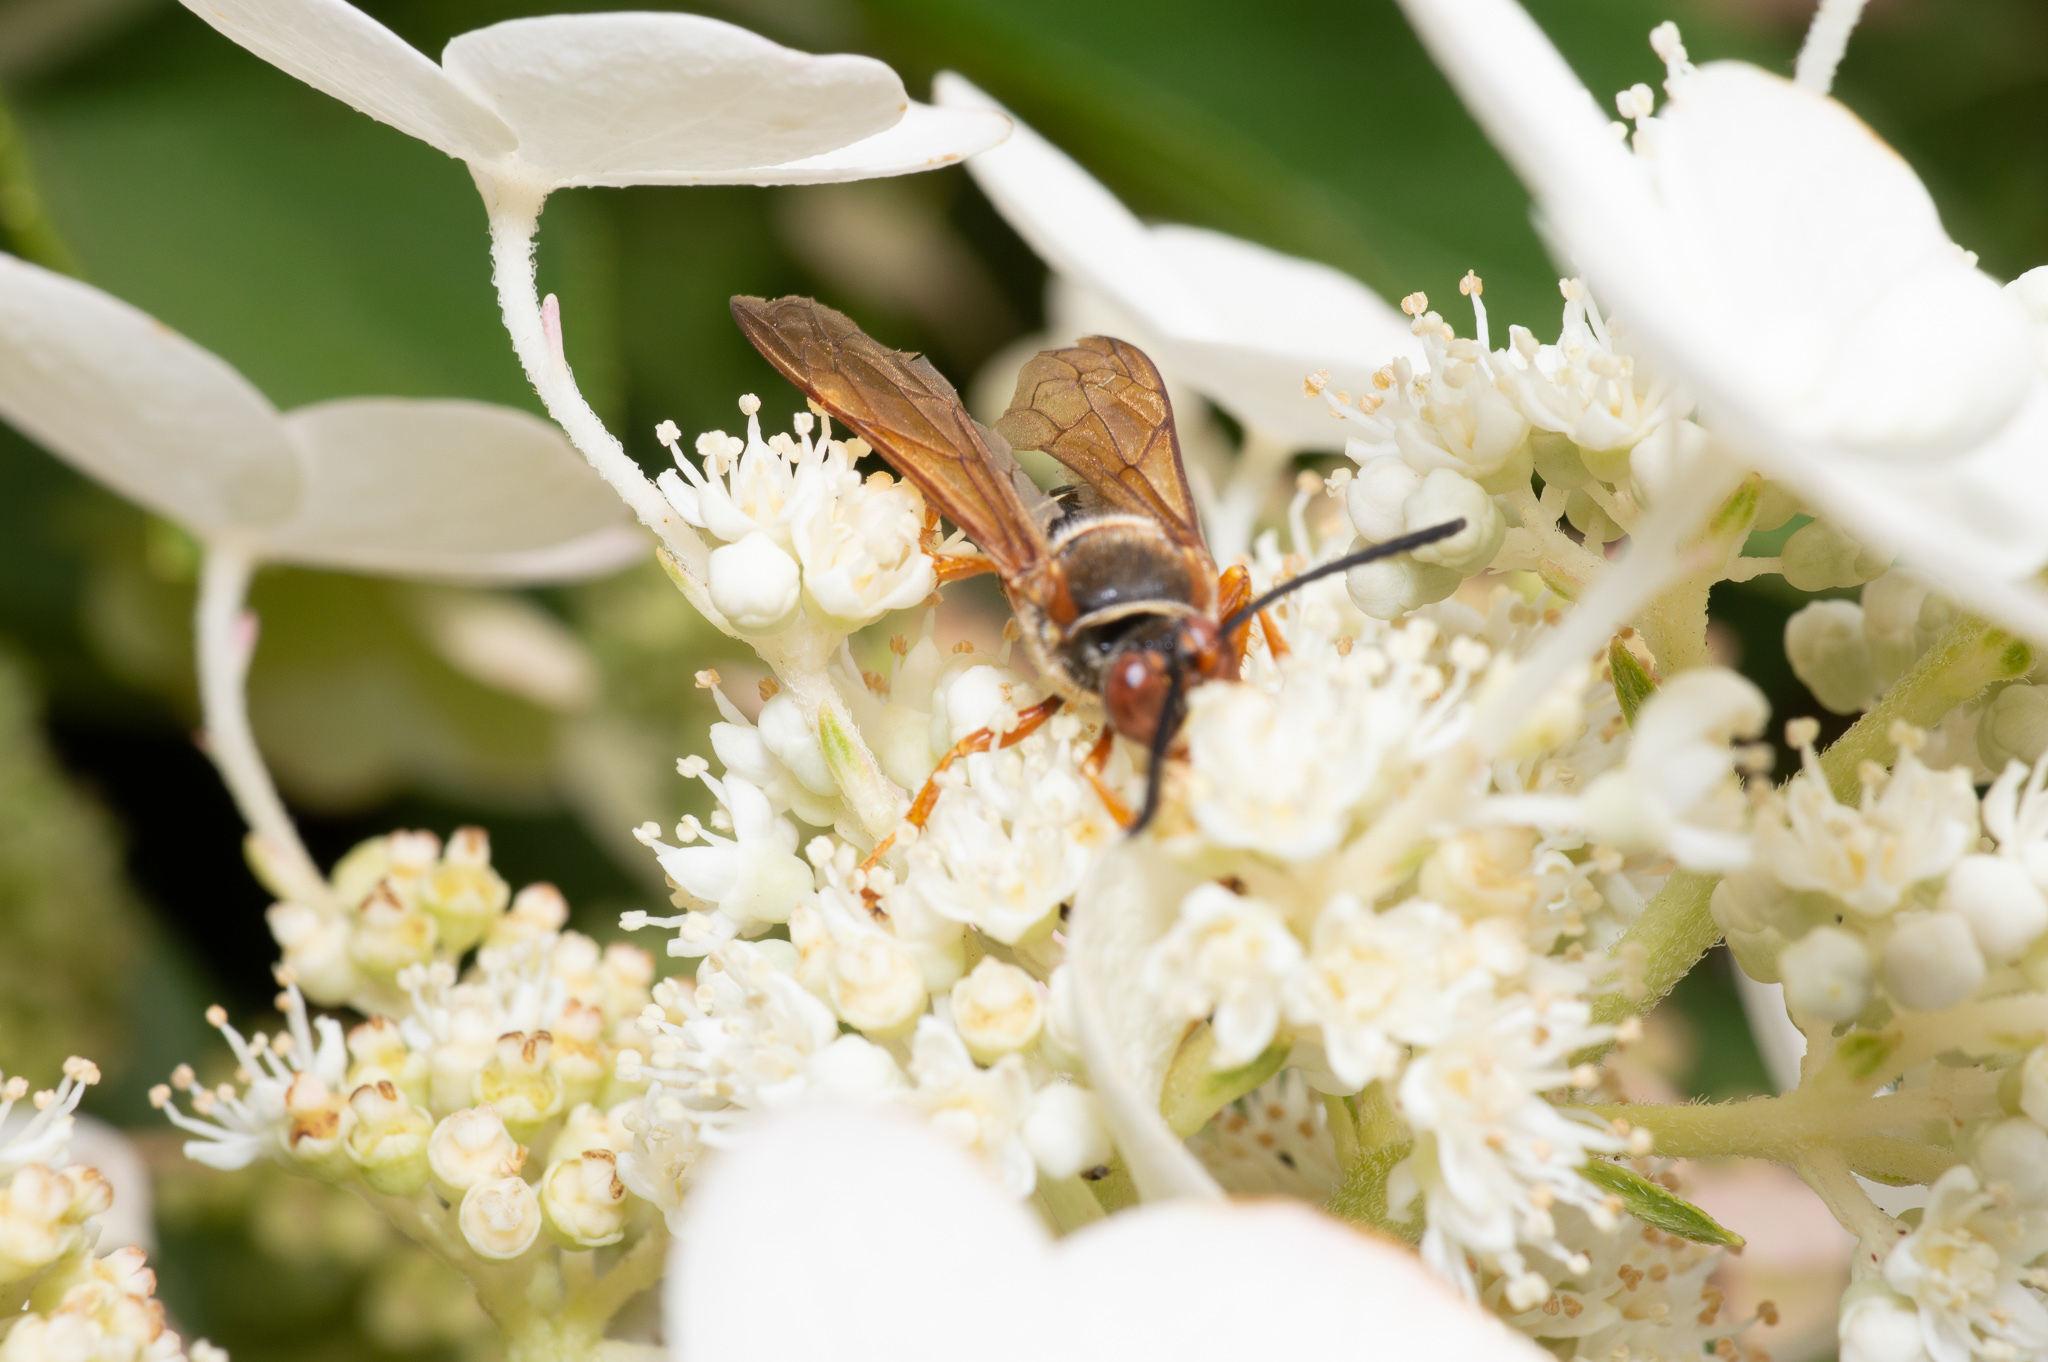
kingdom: Animalia
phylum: Arthropoda
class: Insecta
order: Hymenoptera
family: Crabronidae
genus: Sphecius
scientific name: Sphecius speciosus
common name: Cicada killer
